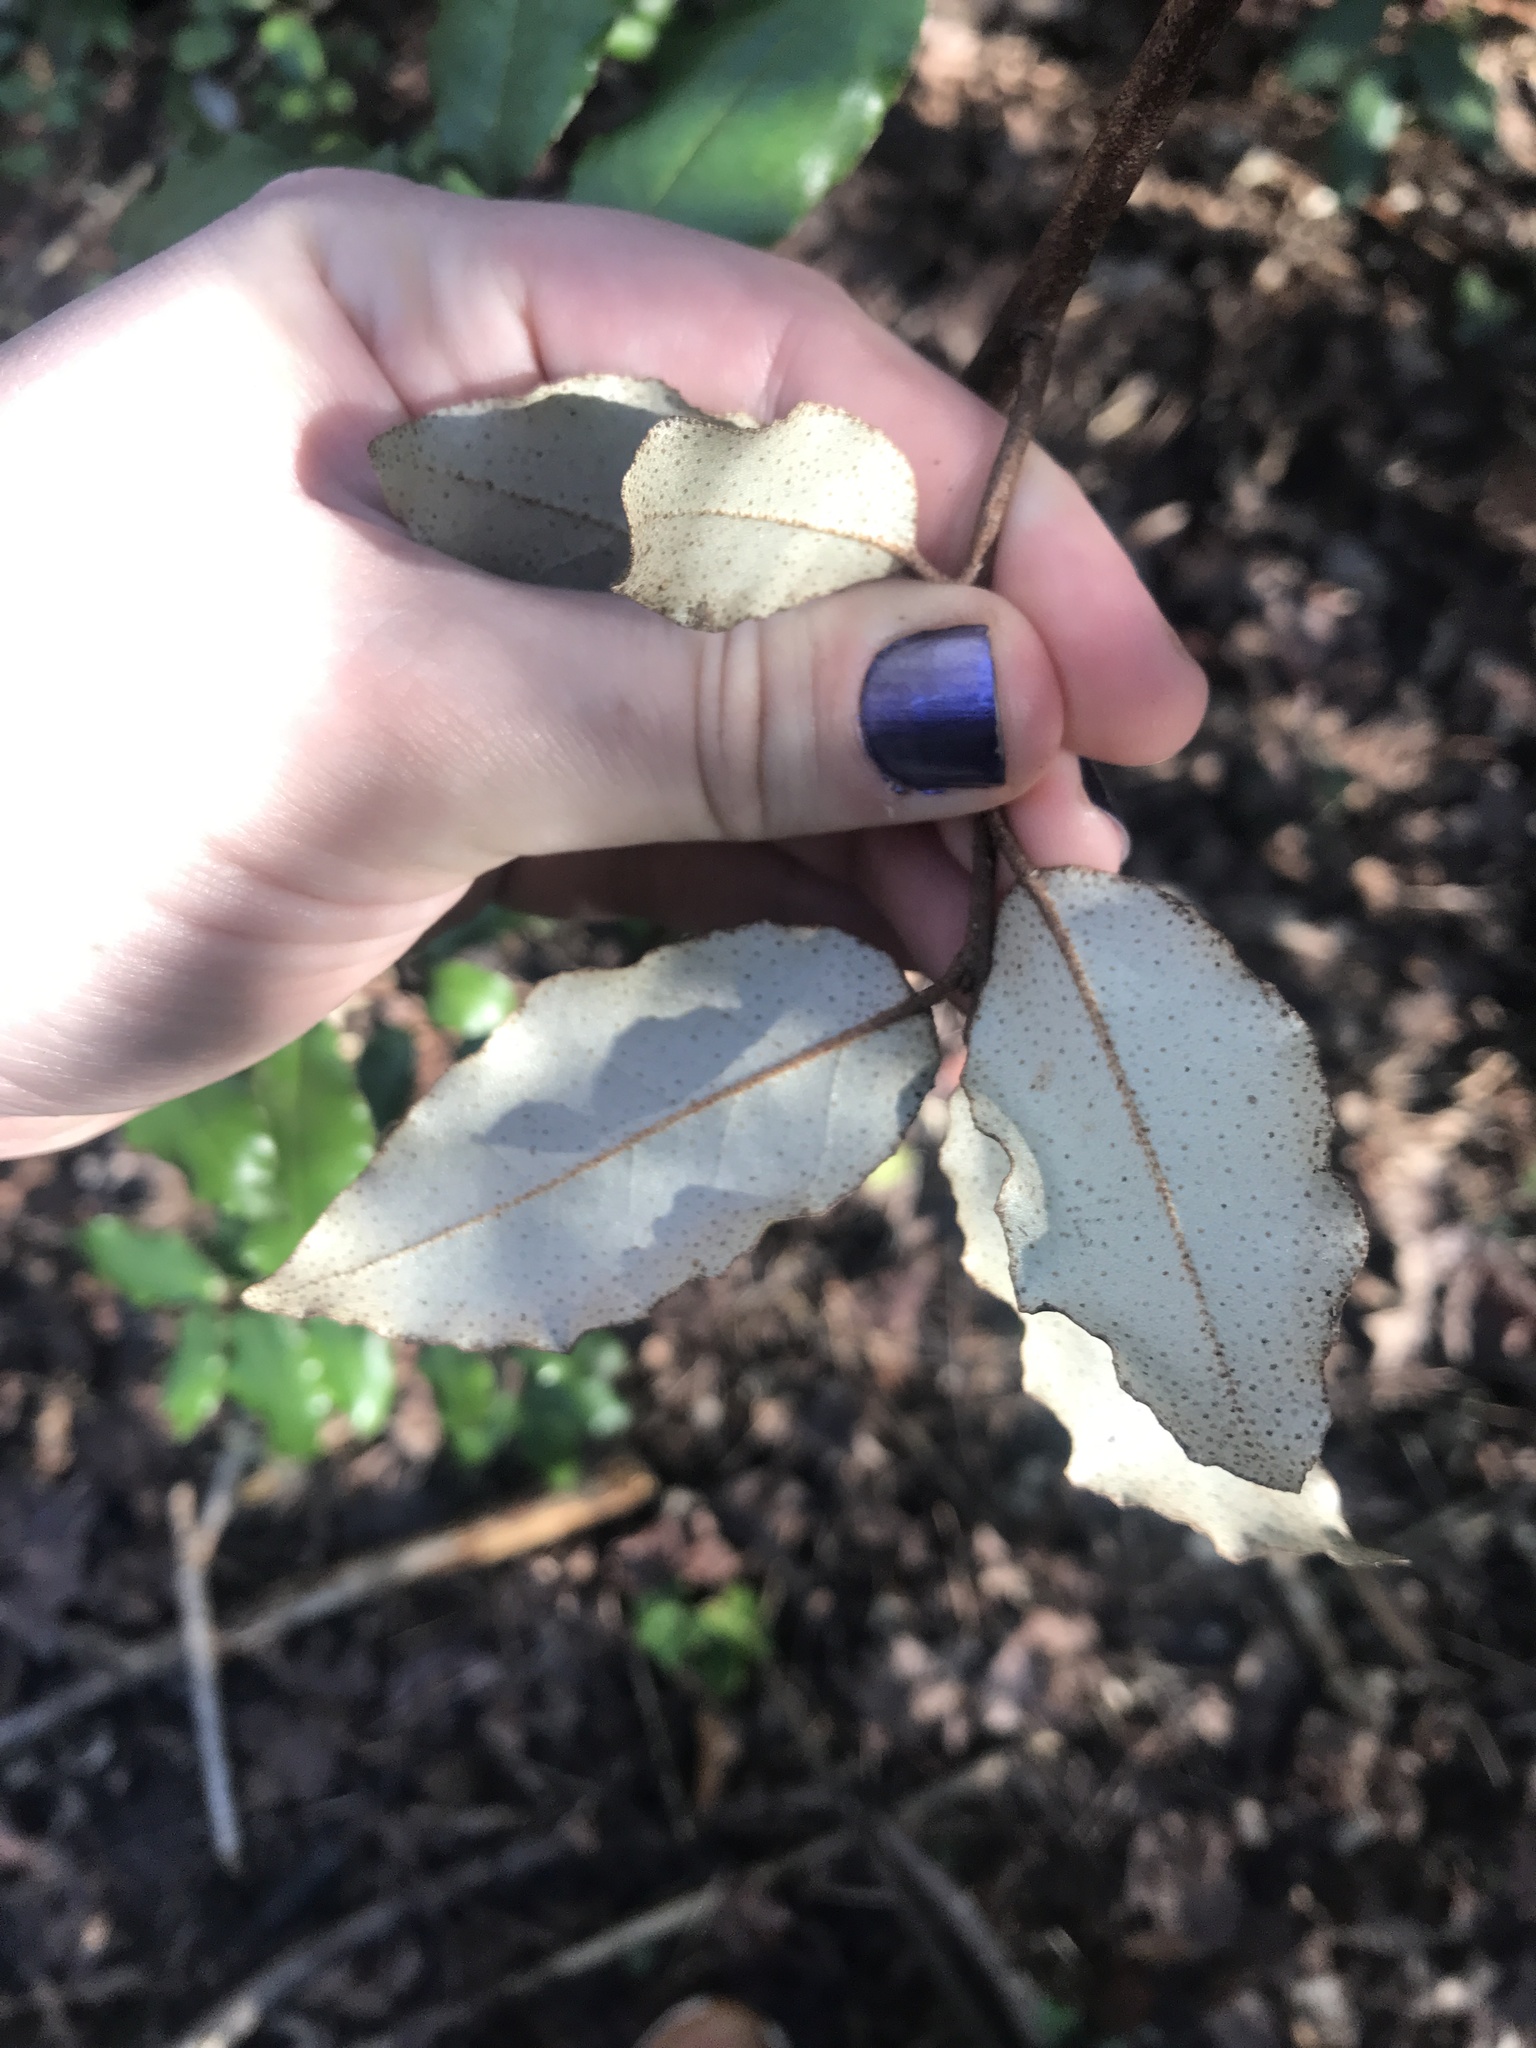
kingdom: Plantae
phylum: Tracheophyta
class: Magnoliopsida
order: Rosales
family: Elaeagnaceae
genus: Elaeagnus
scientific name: Elaeagnus pungens
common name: Spiny oleaster
